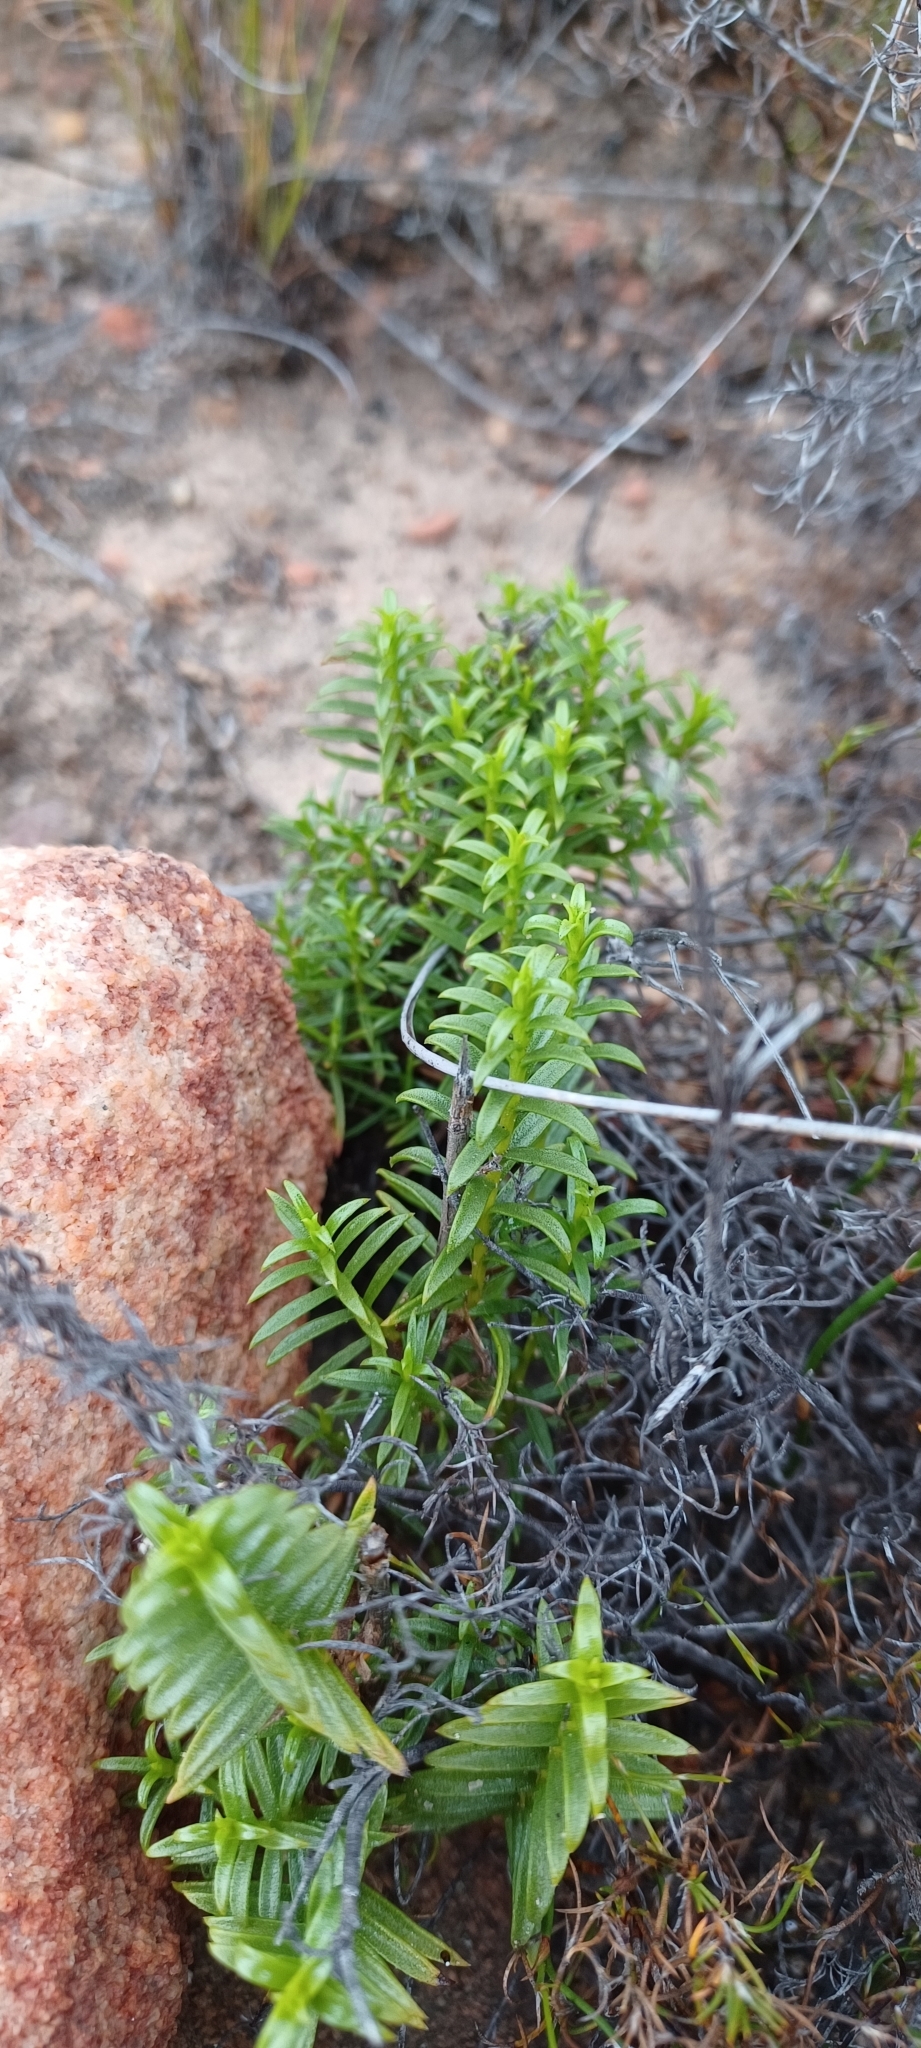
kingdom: Plantae
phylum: Tracheophyta
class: Magnoliopsida
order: Asterales
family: Asteraceae
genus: Oedera
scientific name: Oedera squarrosa
